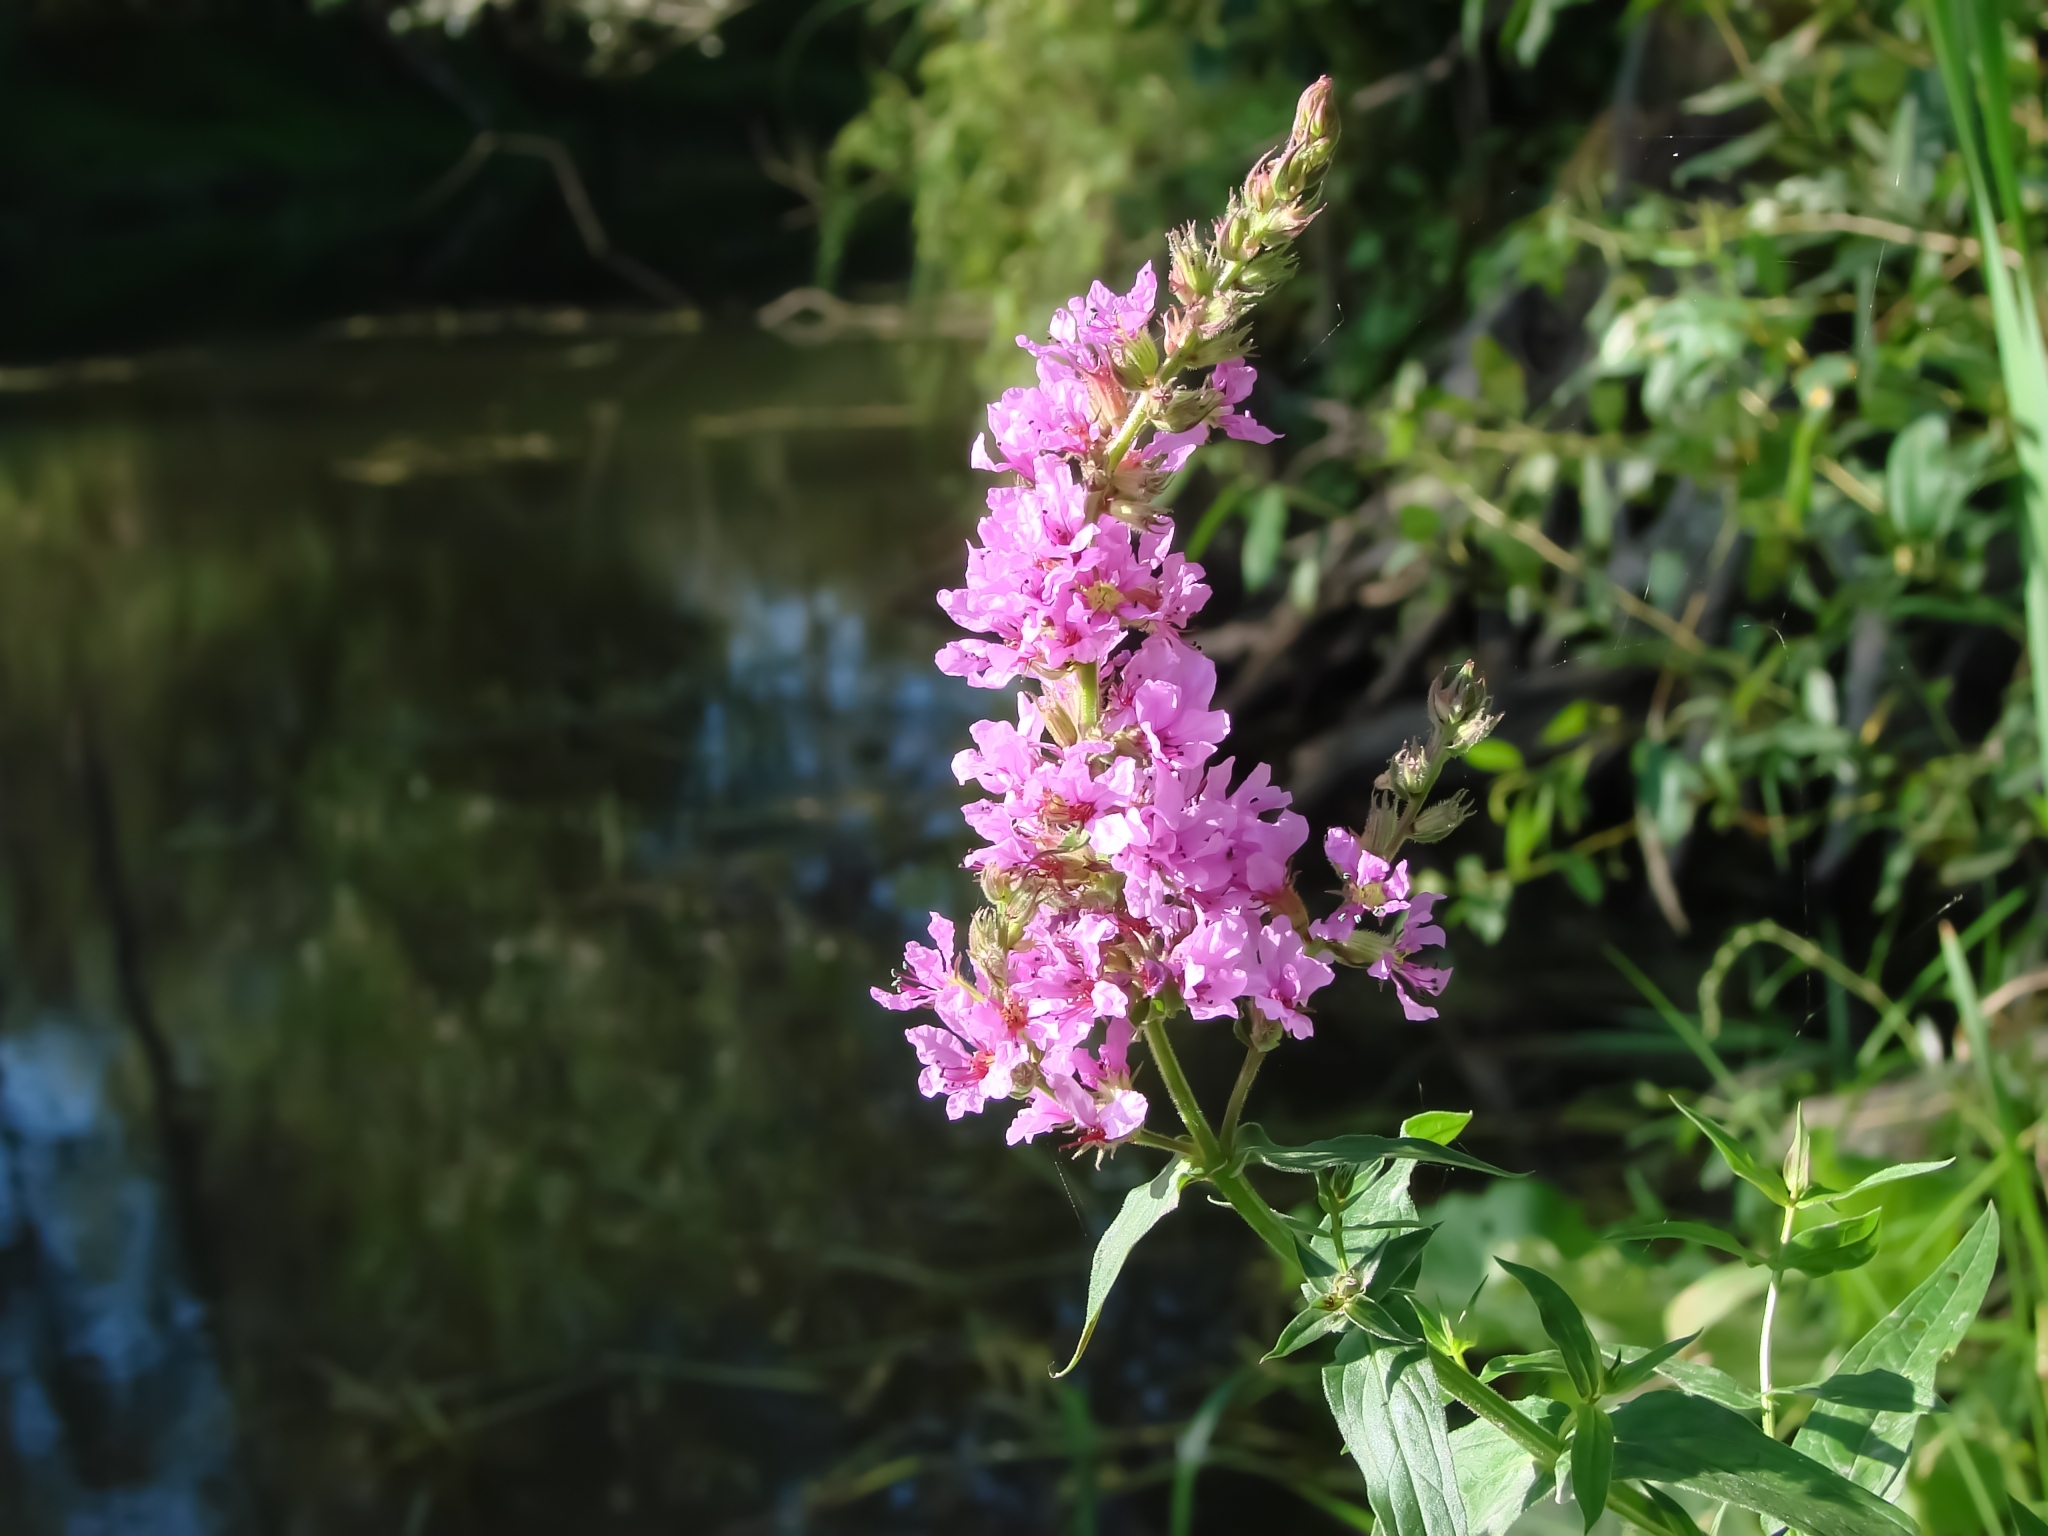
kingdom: Plantae
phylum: Tracheophyta
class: Magnoliopsida
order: Myrtales
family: Lythraceae
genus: Lythrum
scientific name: Lythrum salicaria
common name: Purple loosestrife
